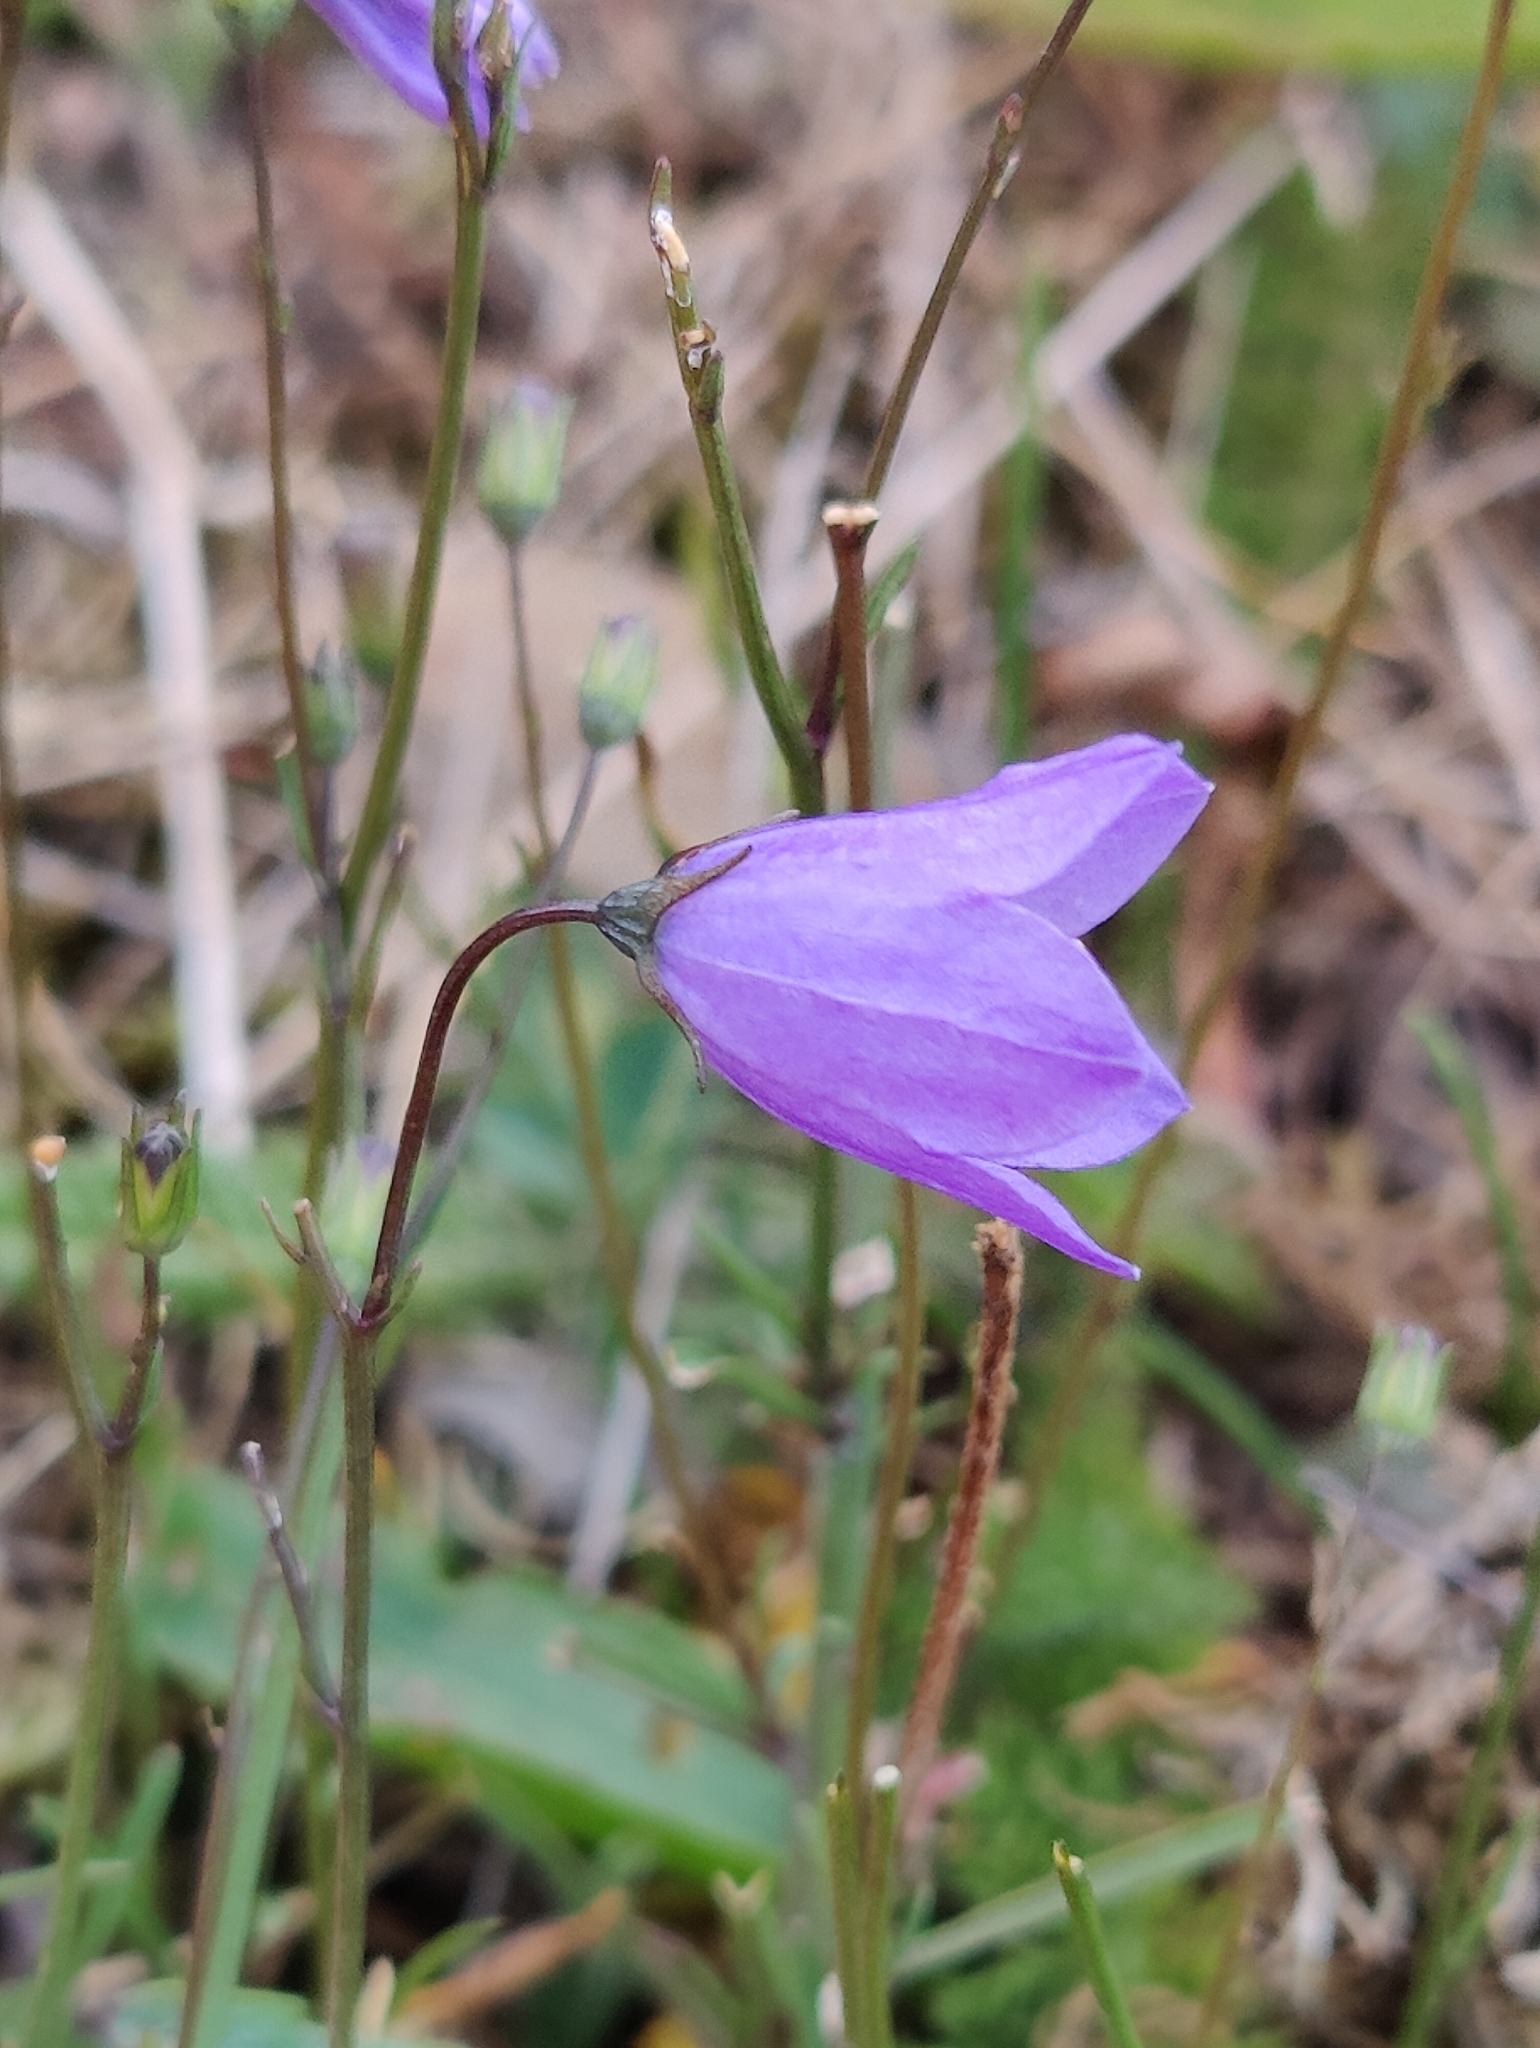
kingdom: Plantae
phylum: Tracheophyta
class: Magnoliopsida
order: Asterales
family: Campanulaceae
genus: Campanula
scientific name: Campanula rotundifolia
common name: Harebell
